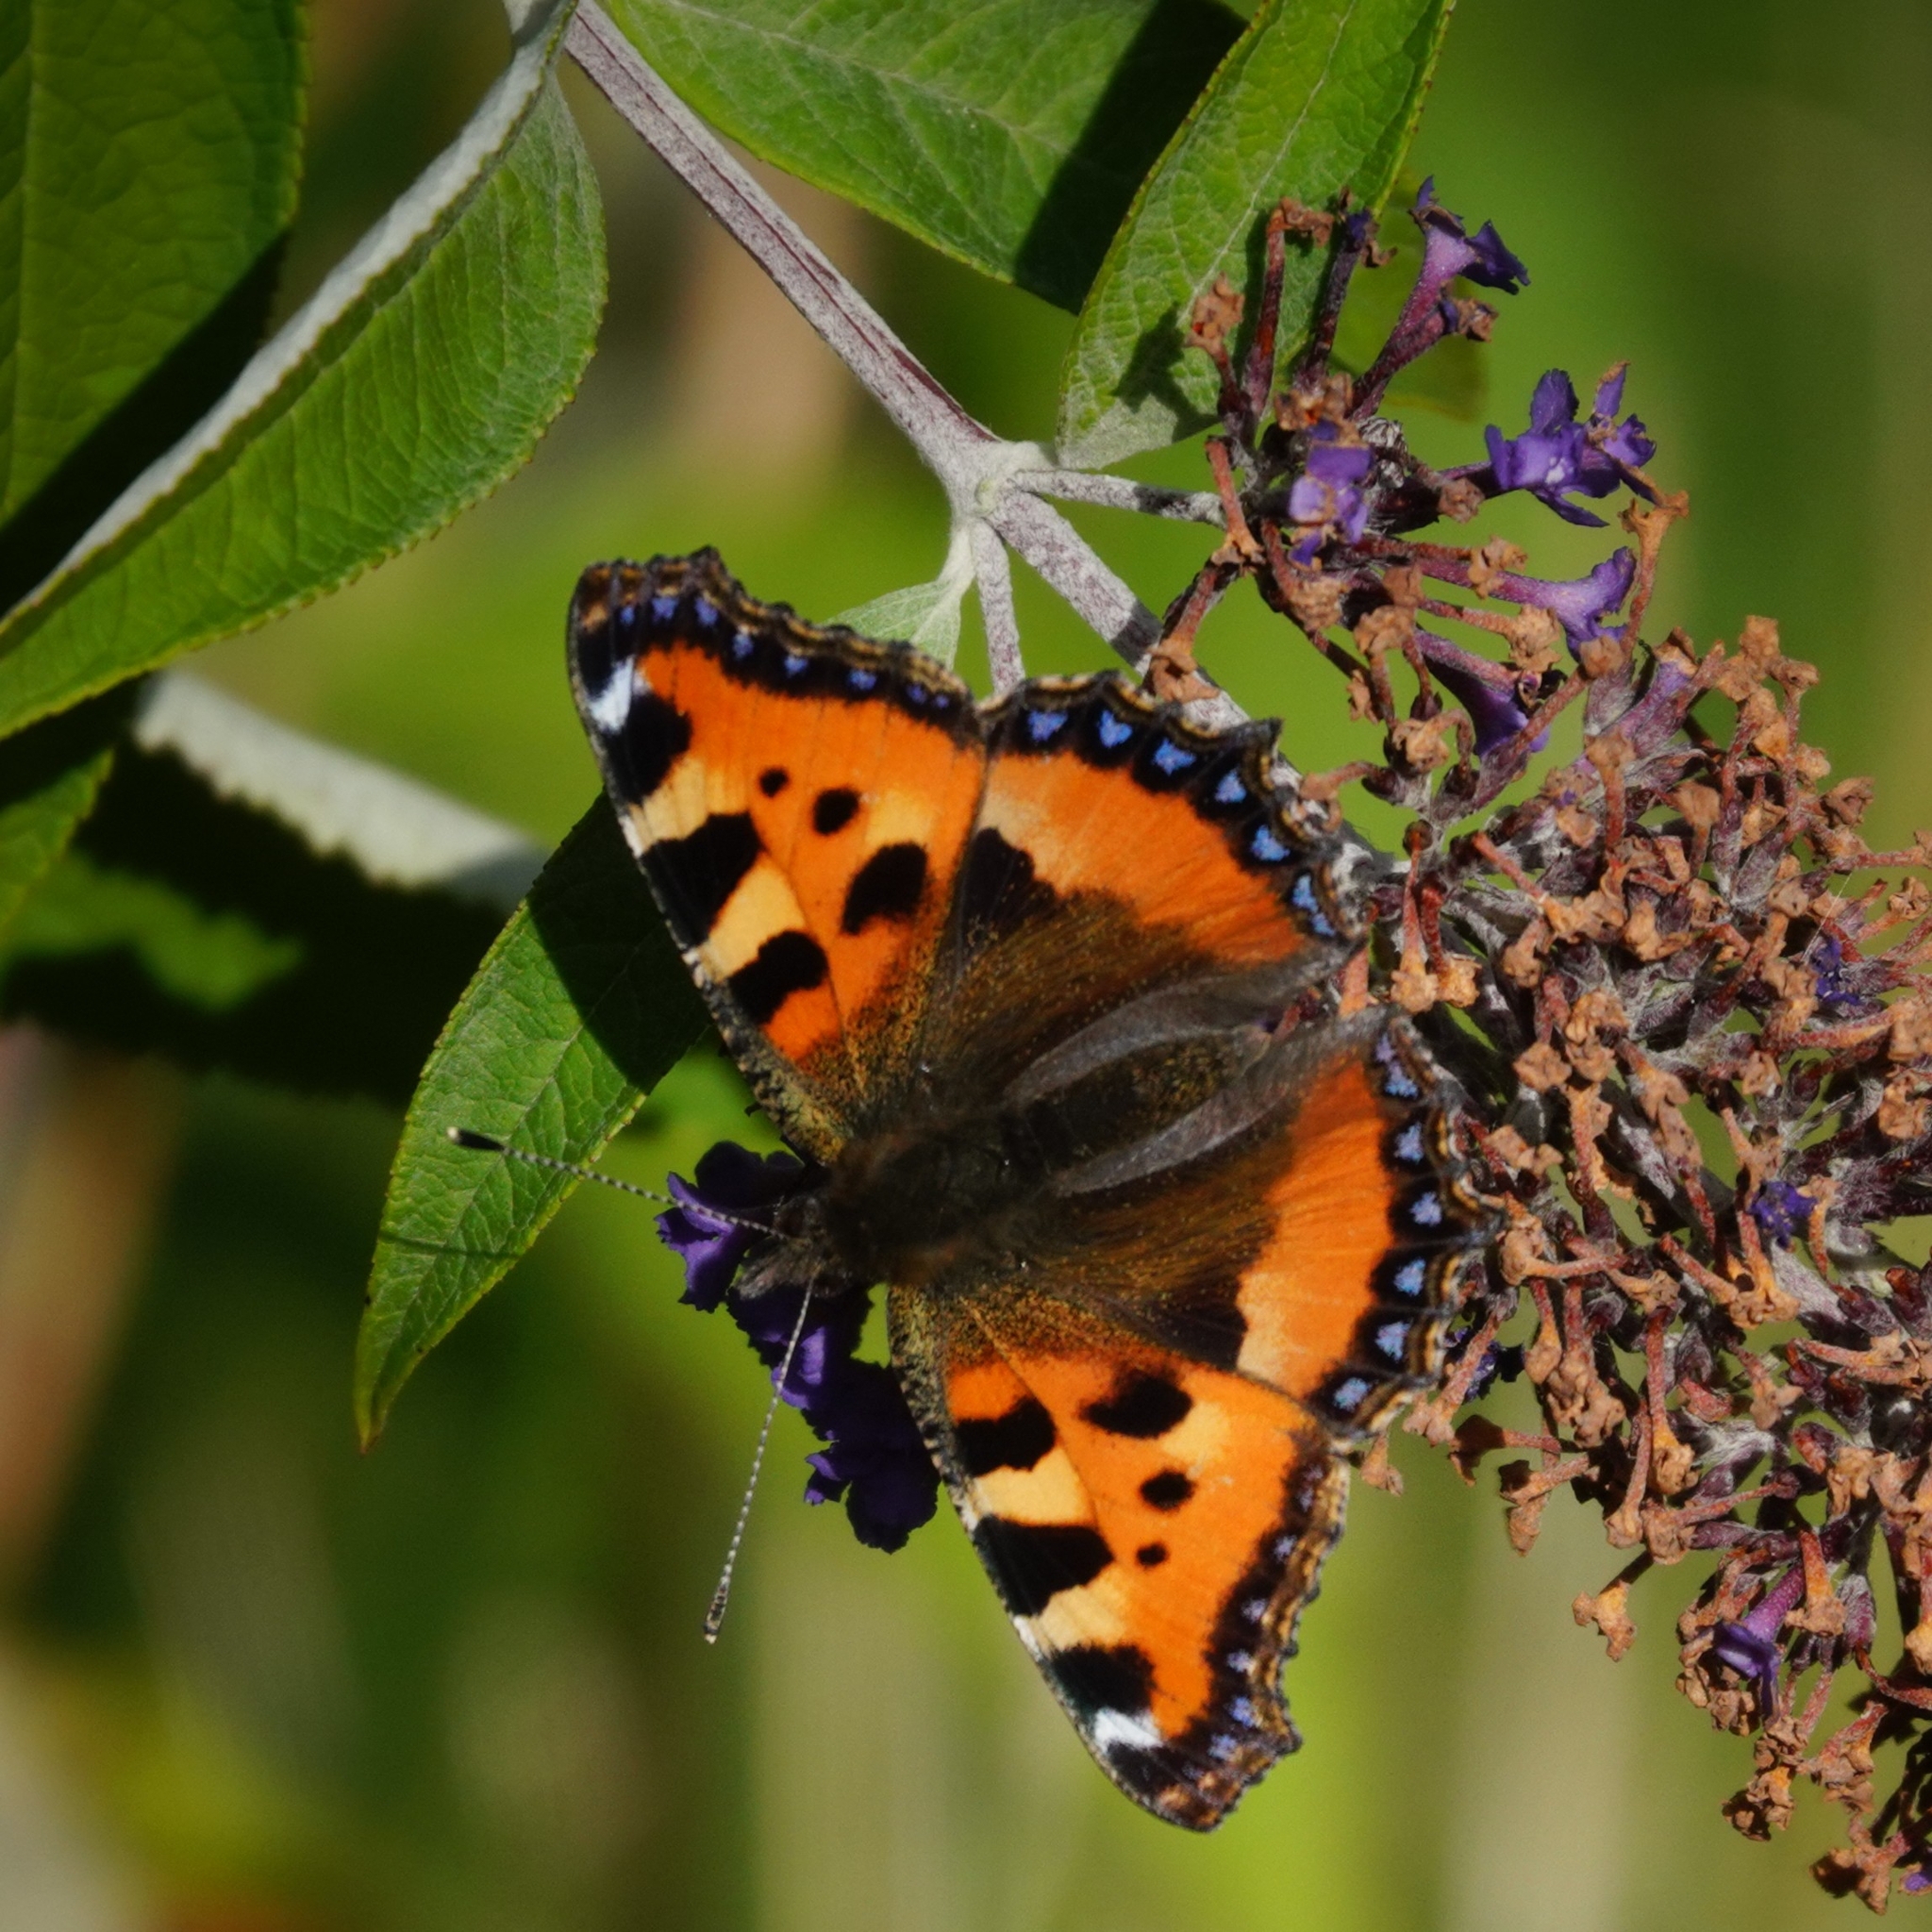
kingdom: Animalia
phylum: Arthropoda
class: Insecta
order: Lepidoptera
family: Nymphalidae
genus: Aglais
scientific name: Aglais urticae
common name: Small tortoiseshell
